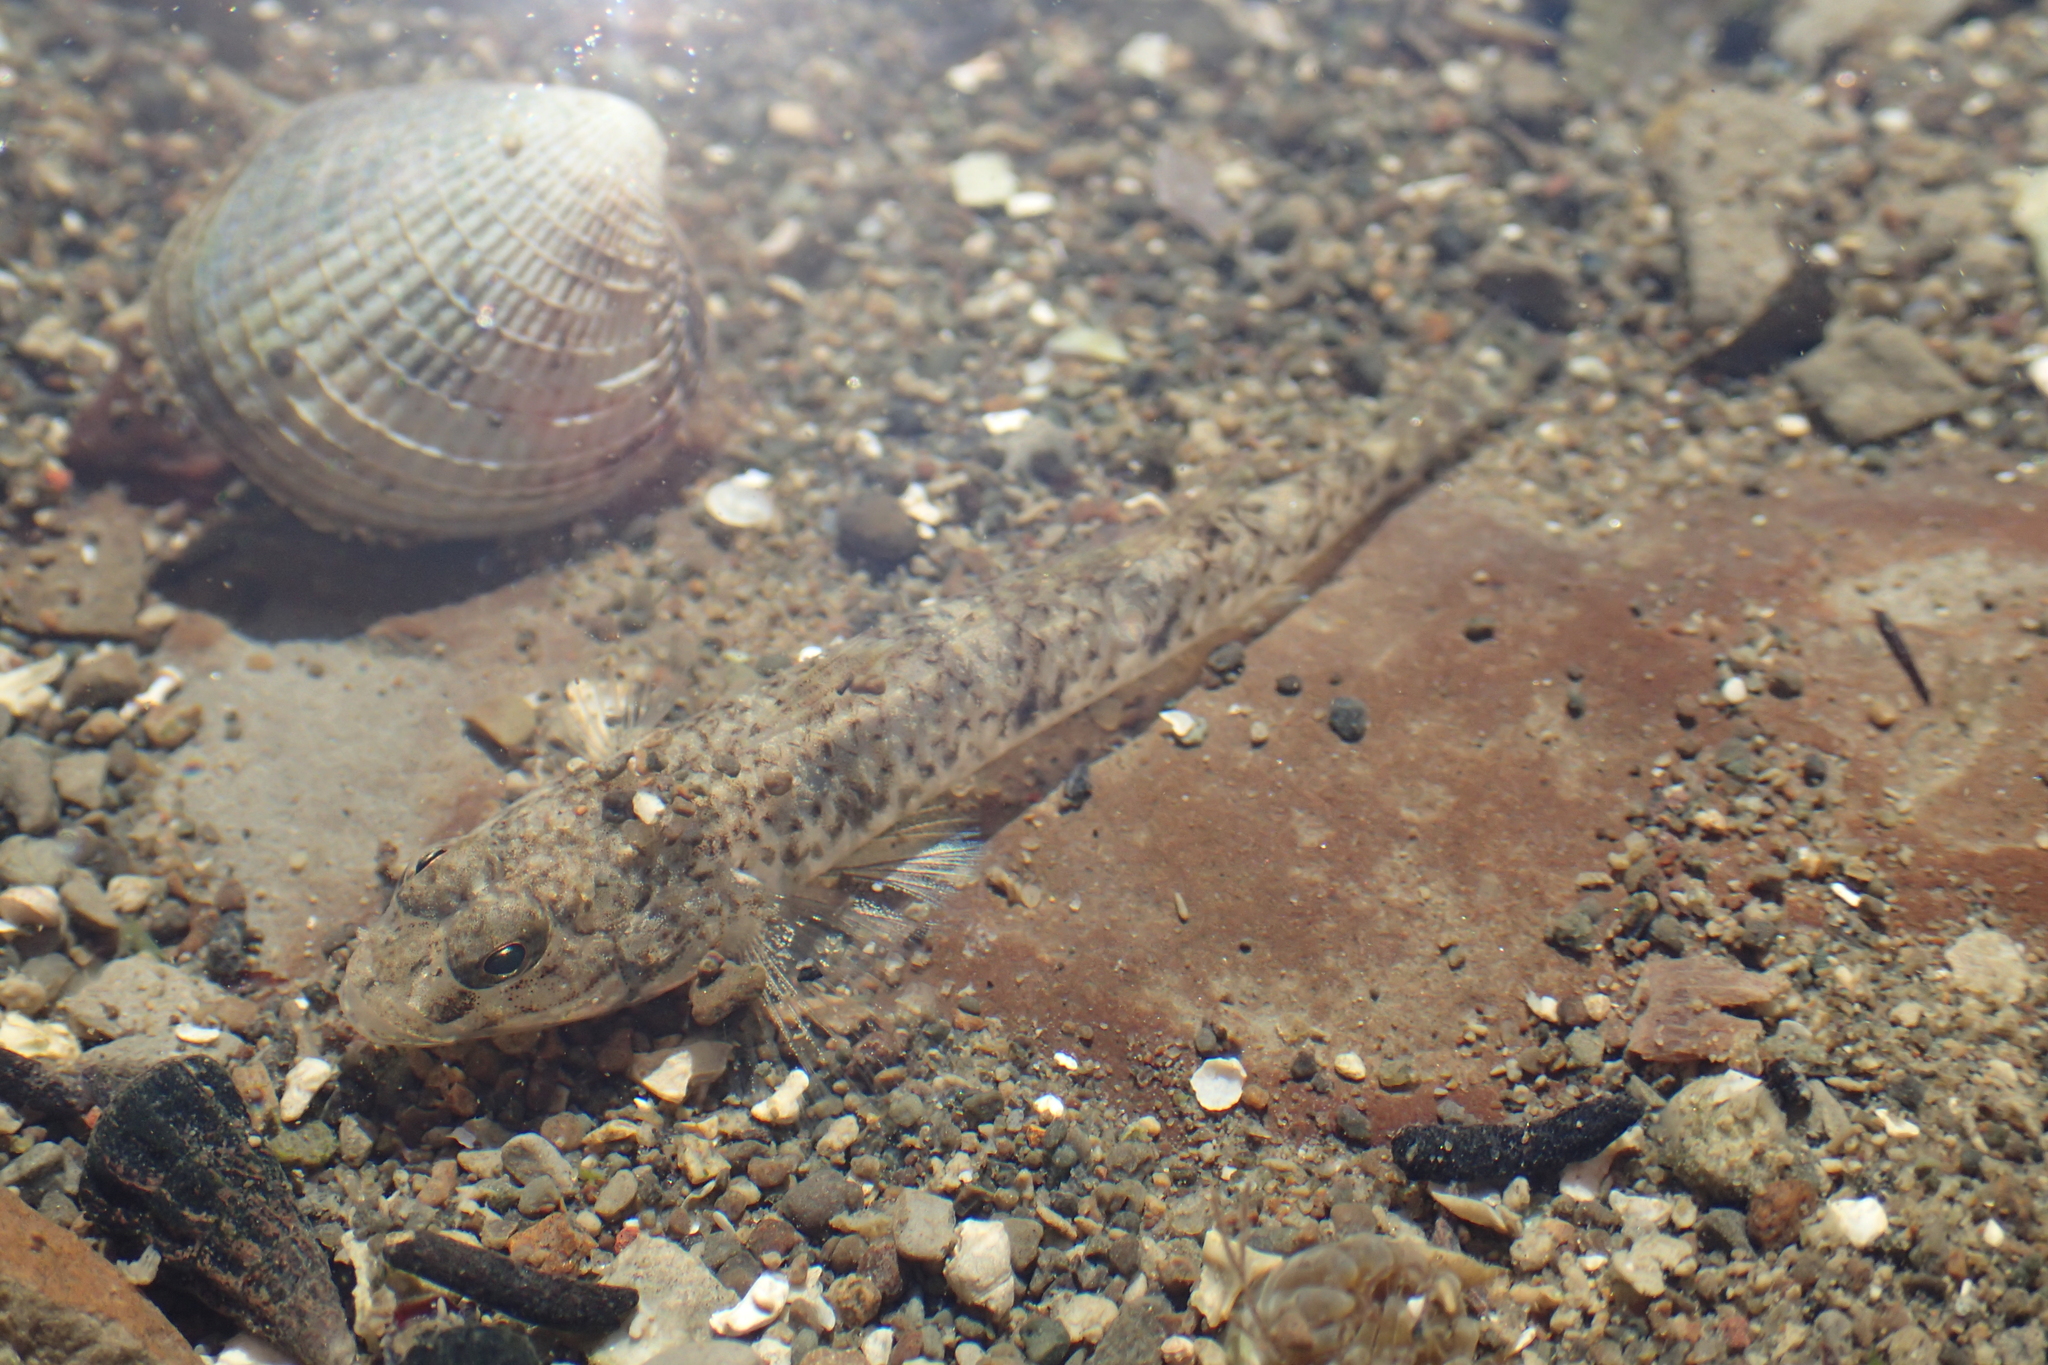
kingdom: Animalia
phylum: Chordata
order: Perciformes
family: Gobiidae
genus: Favonigobius
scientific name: Favonigobius exquisitus
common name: Exquisite sand-goby
